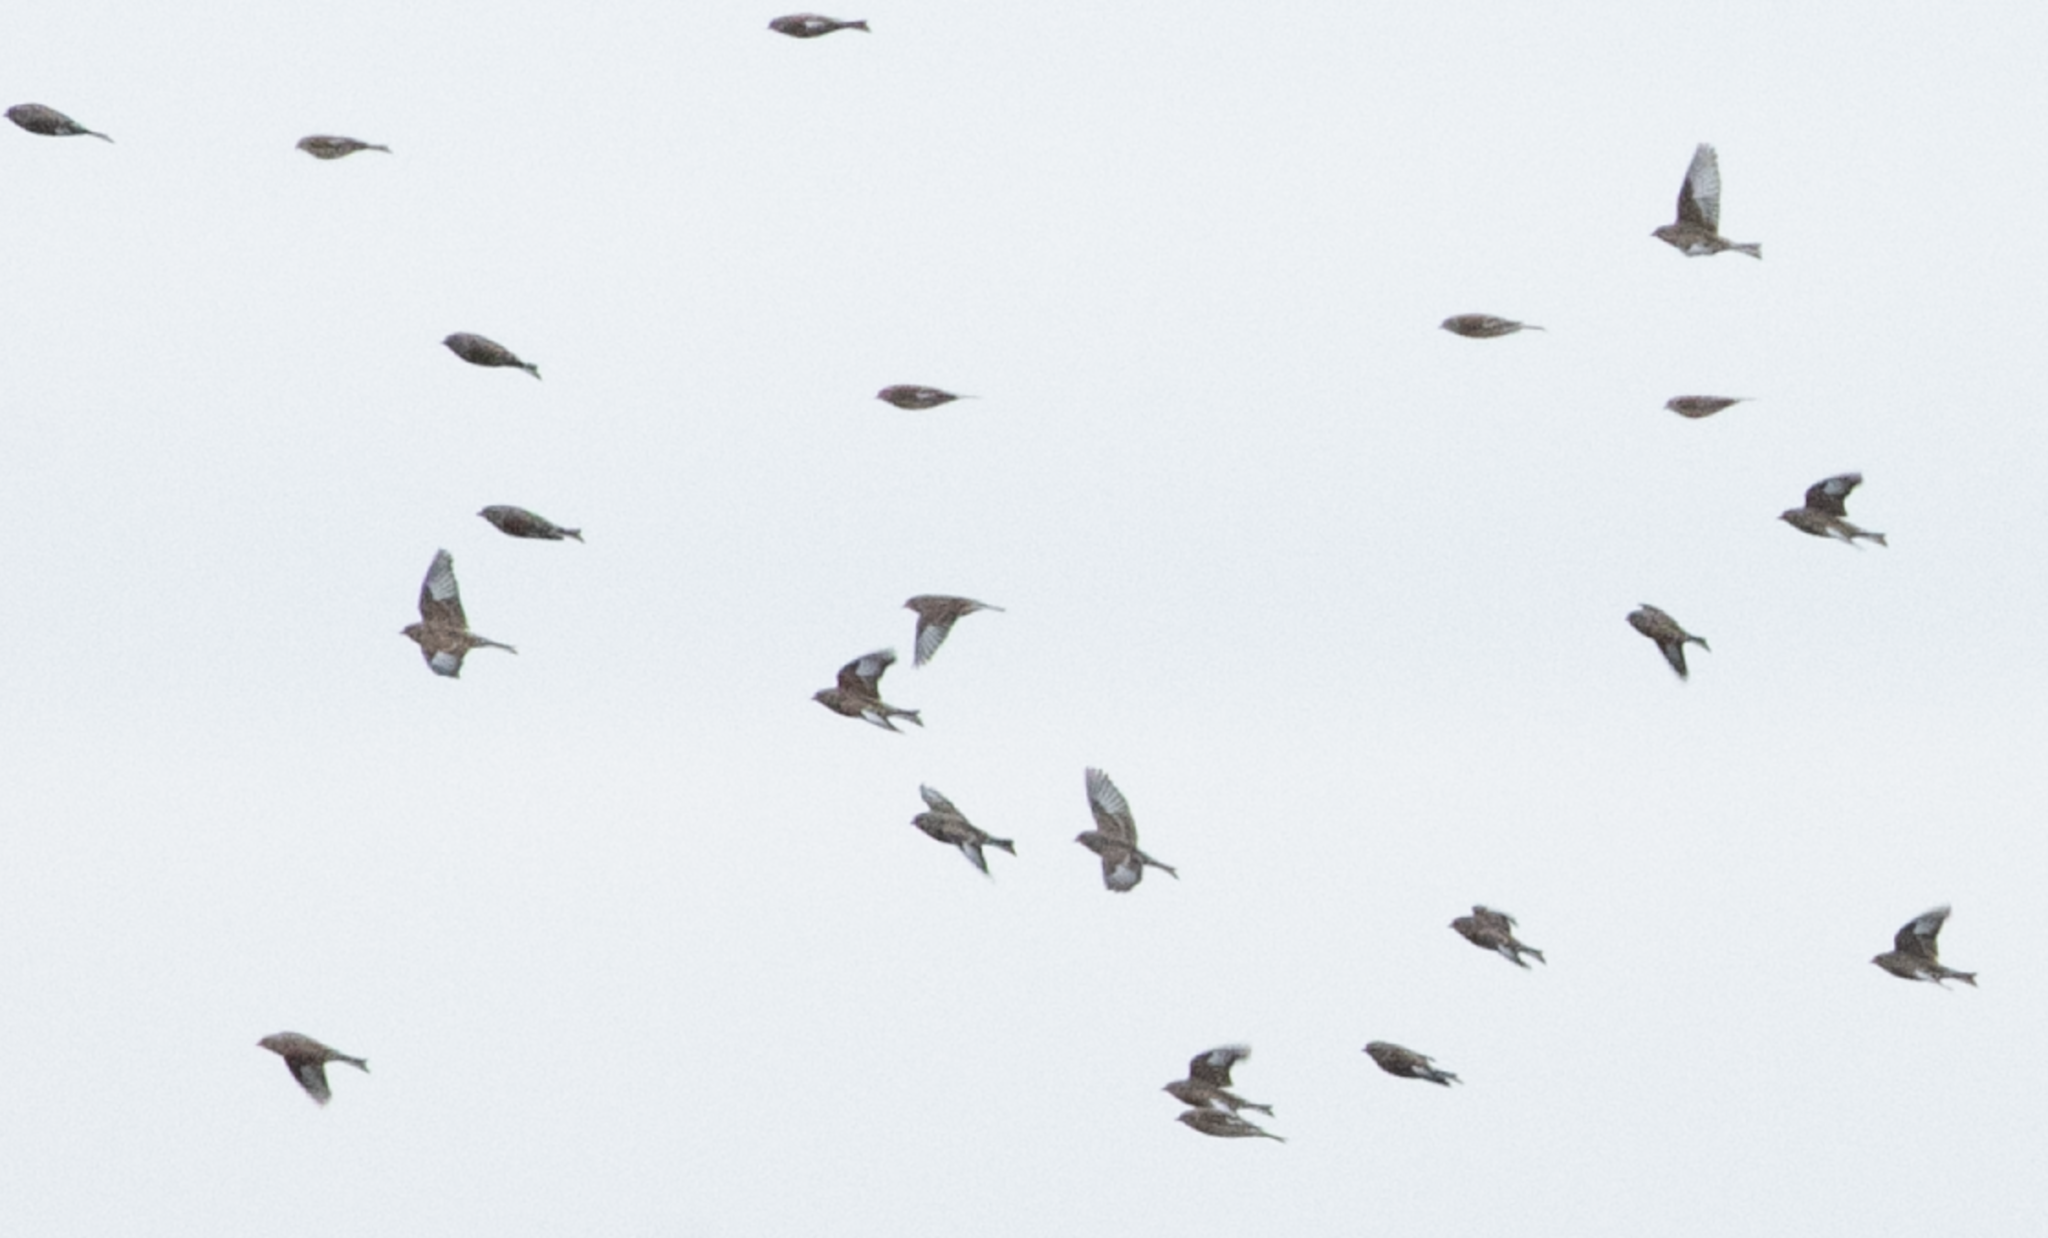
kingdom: Animalia
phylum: Chordata
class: Aves
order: Passeriformes
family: Fringillidae
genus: Linaria
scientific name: Linaria cannabina
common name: Common linnet
